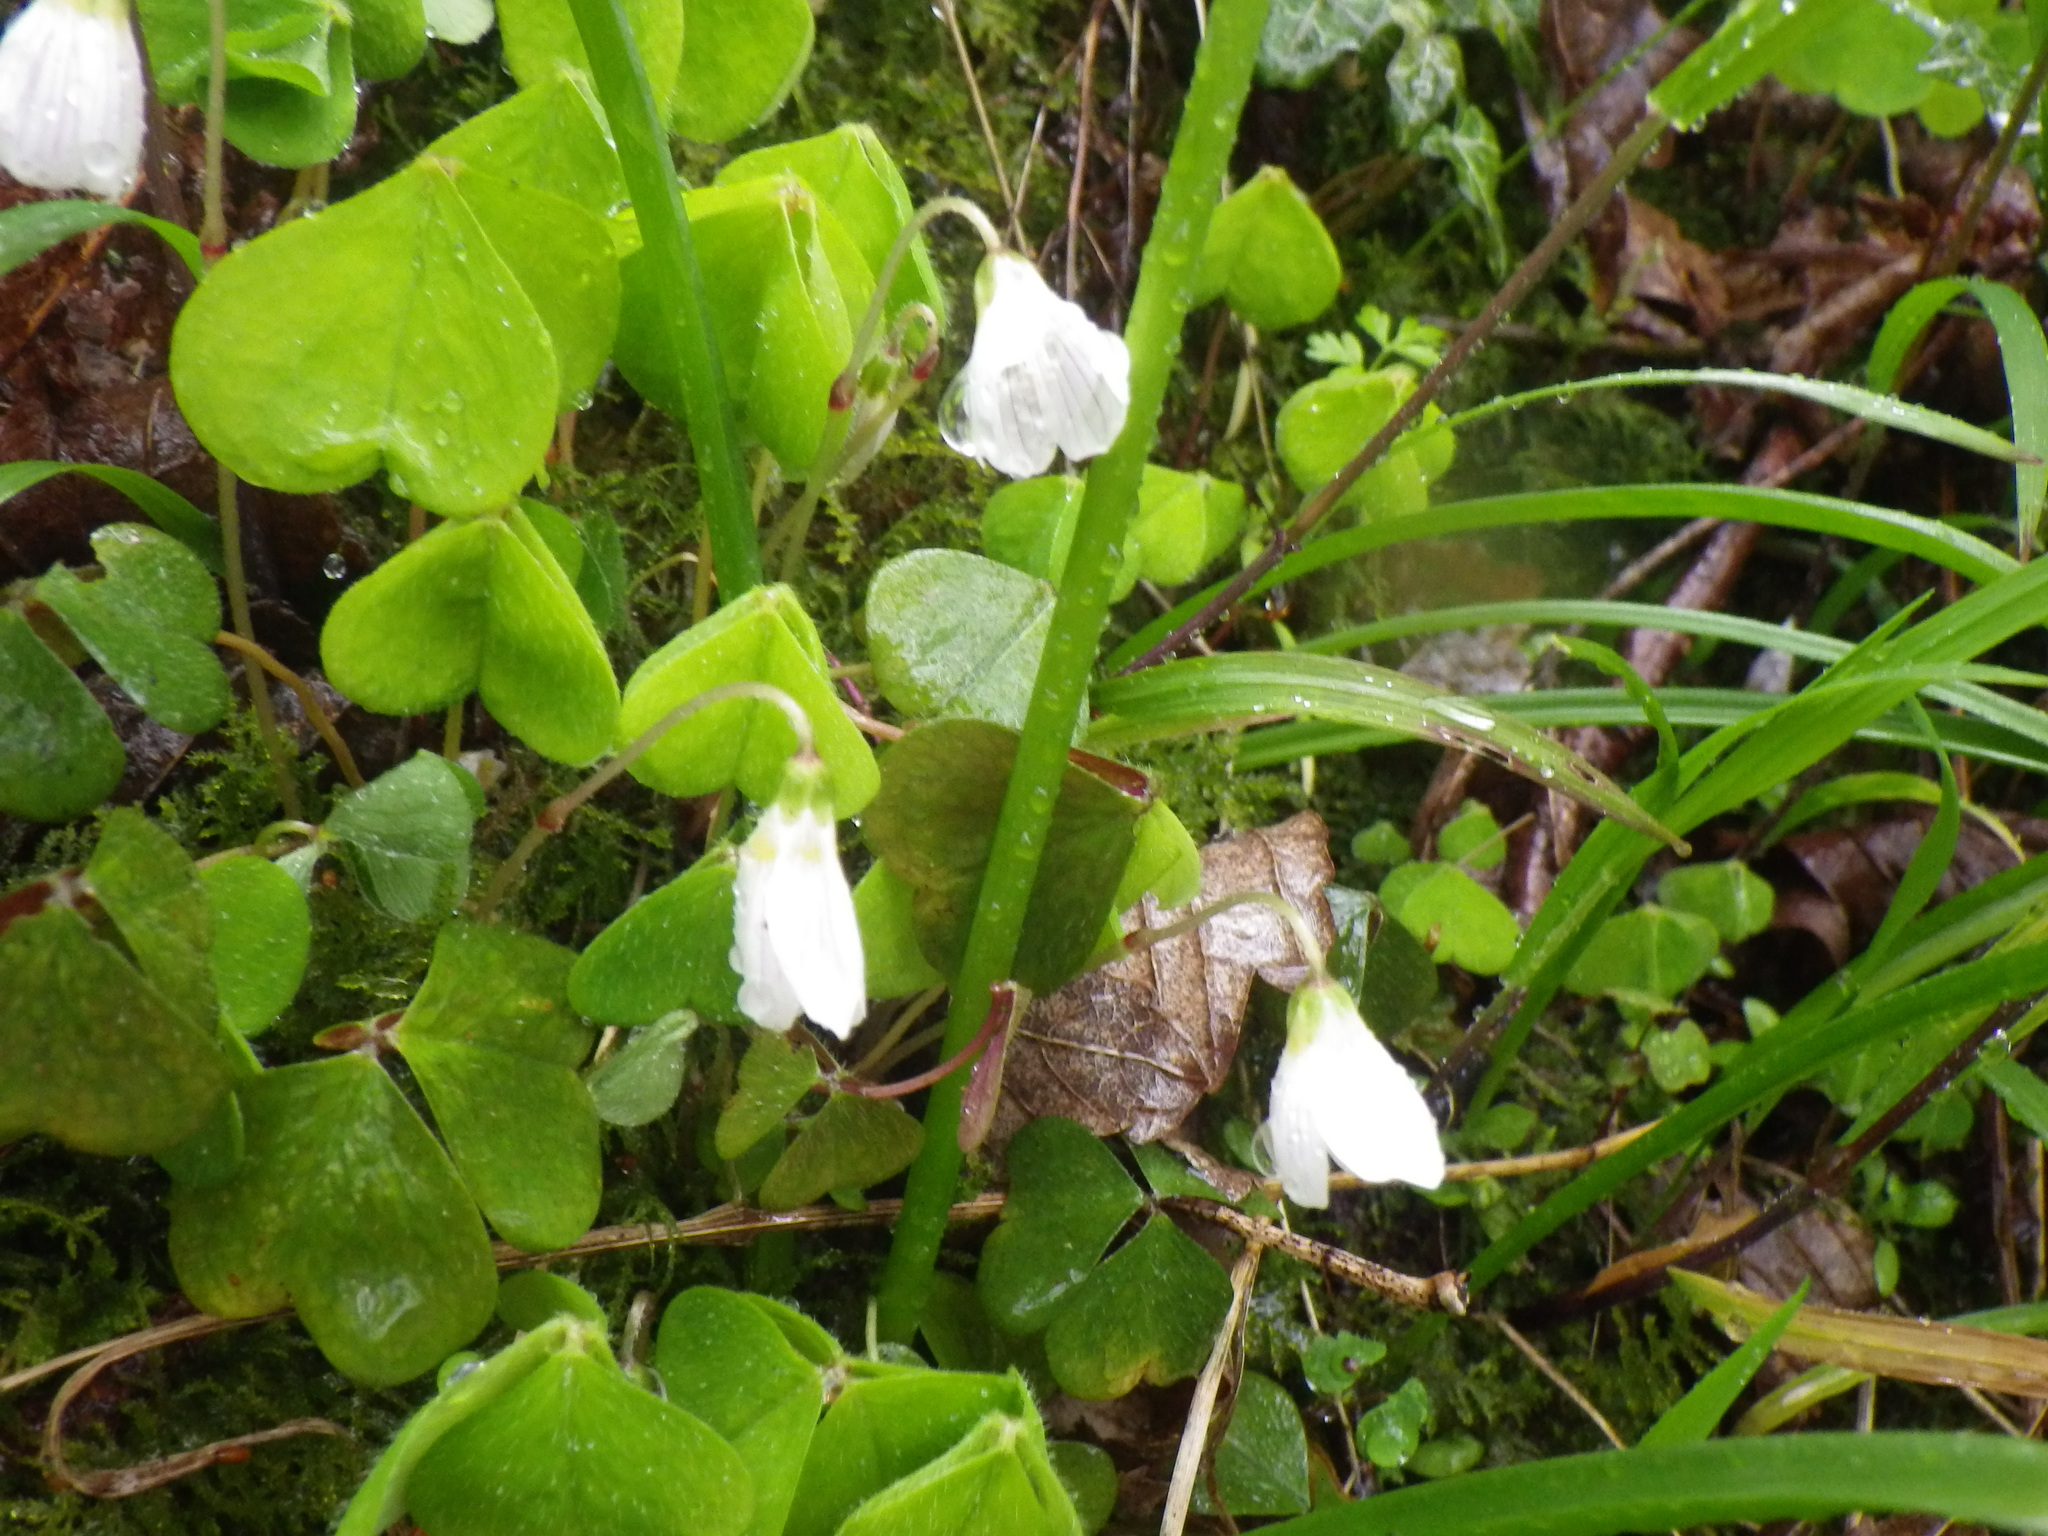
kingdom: Plantae
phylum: Tracheophyta
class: Magnoliopsida
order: Oxalidales
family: Oxalidaceae
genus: Oxalis
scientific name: Oxalis acetosella
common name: Wood-sorrel
